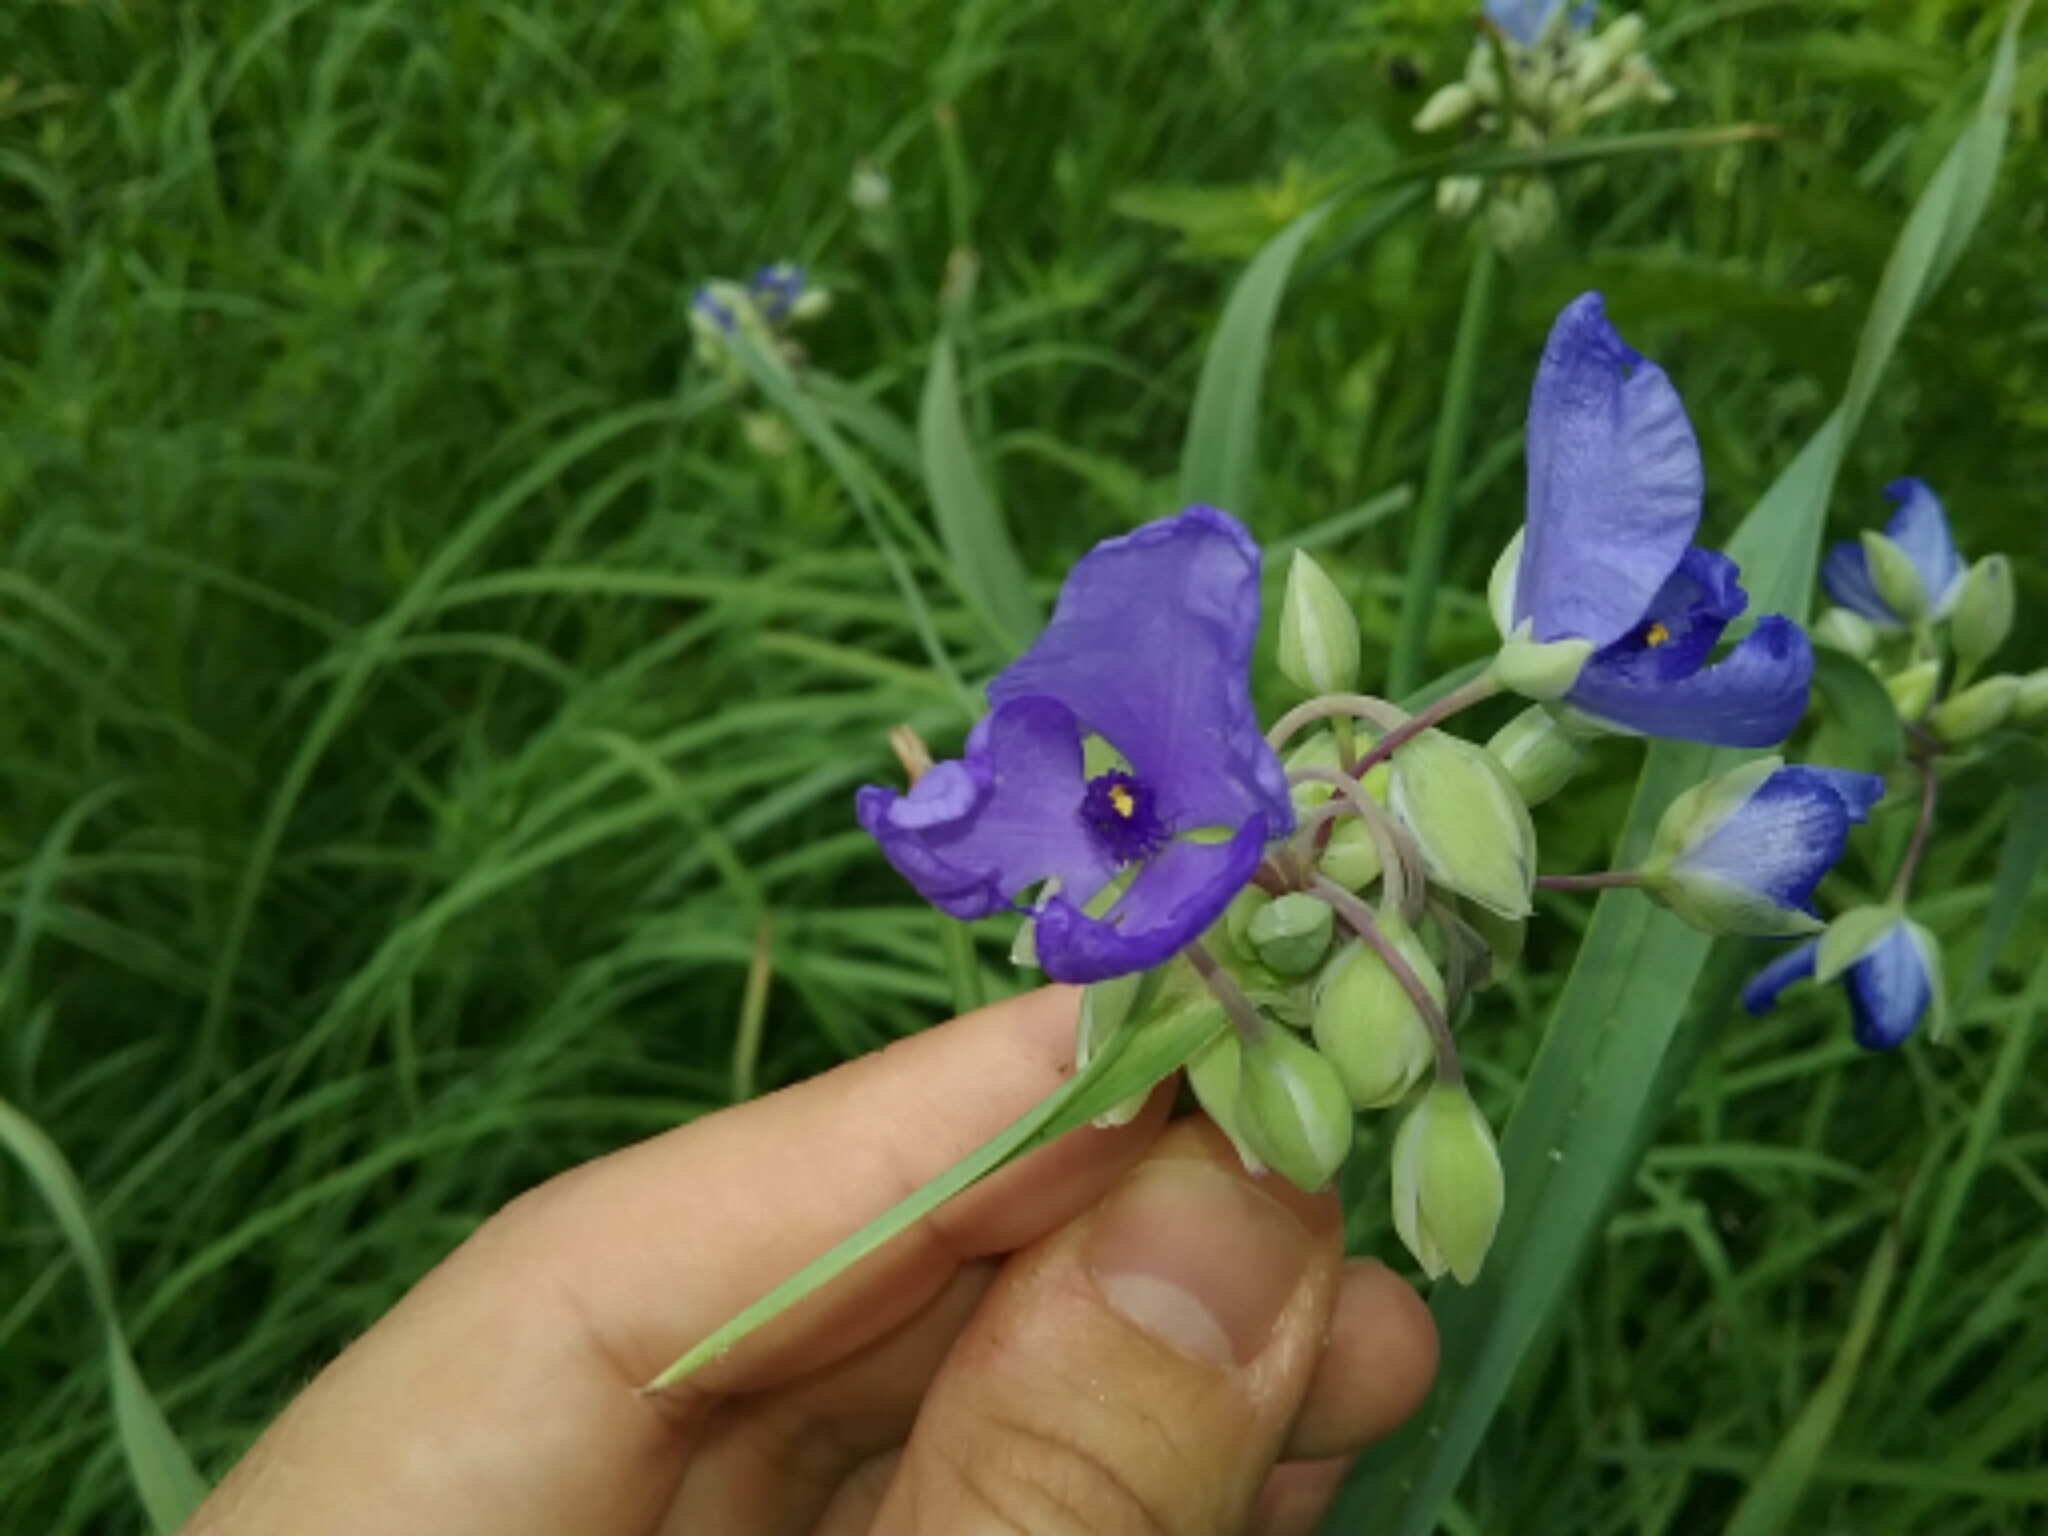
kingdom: Plantae
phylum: Tracheophyta
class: Liliopsida
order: Commelinales
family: Commelinaceae
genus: Tradescantia
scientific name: Tradescantia ohiensis
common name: Ohio spiderwort
